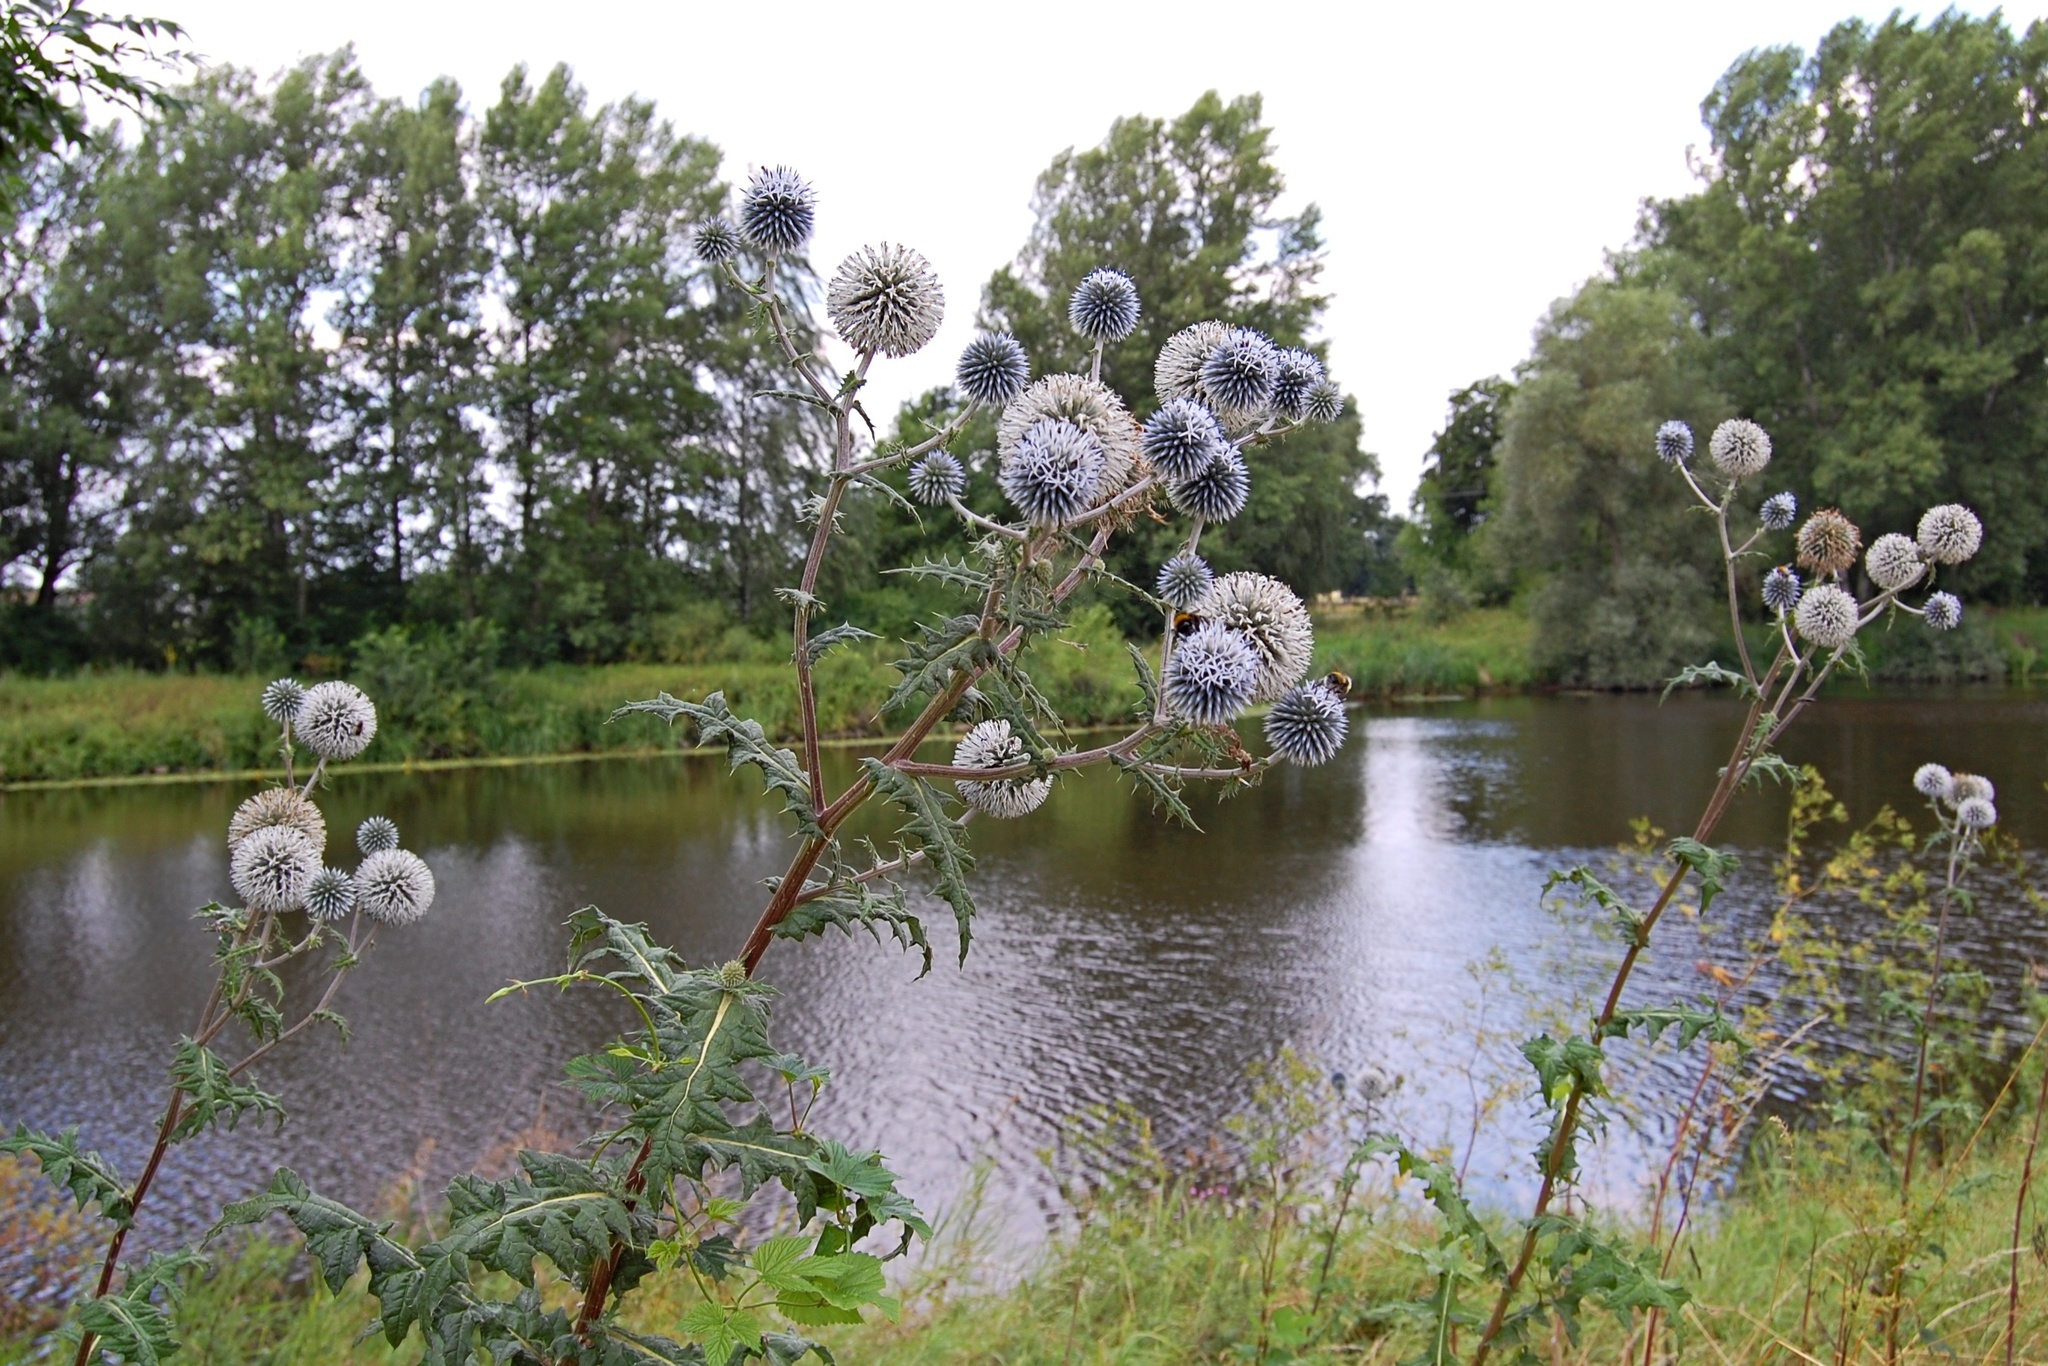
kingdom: Plantae
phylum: Tracheophyta
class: Magnoliopsida
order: Asterales
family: Asteraceae
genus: Echinops
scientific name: Echinops sphaerocephalus
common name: Glandular globe-thistle
